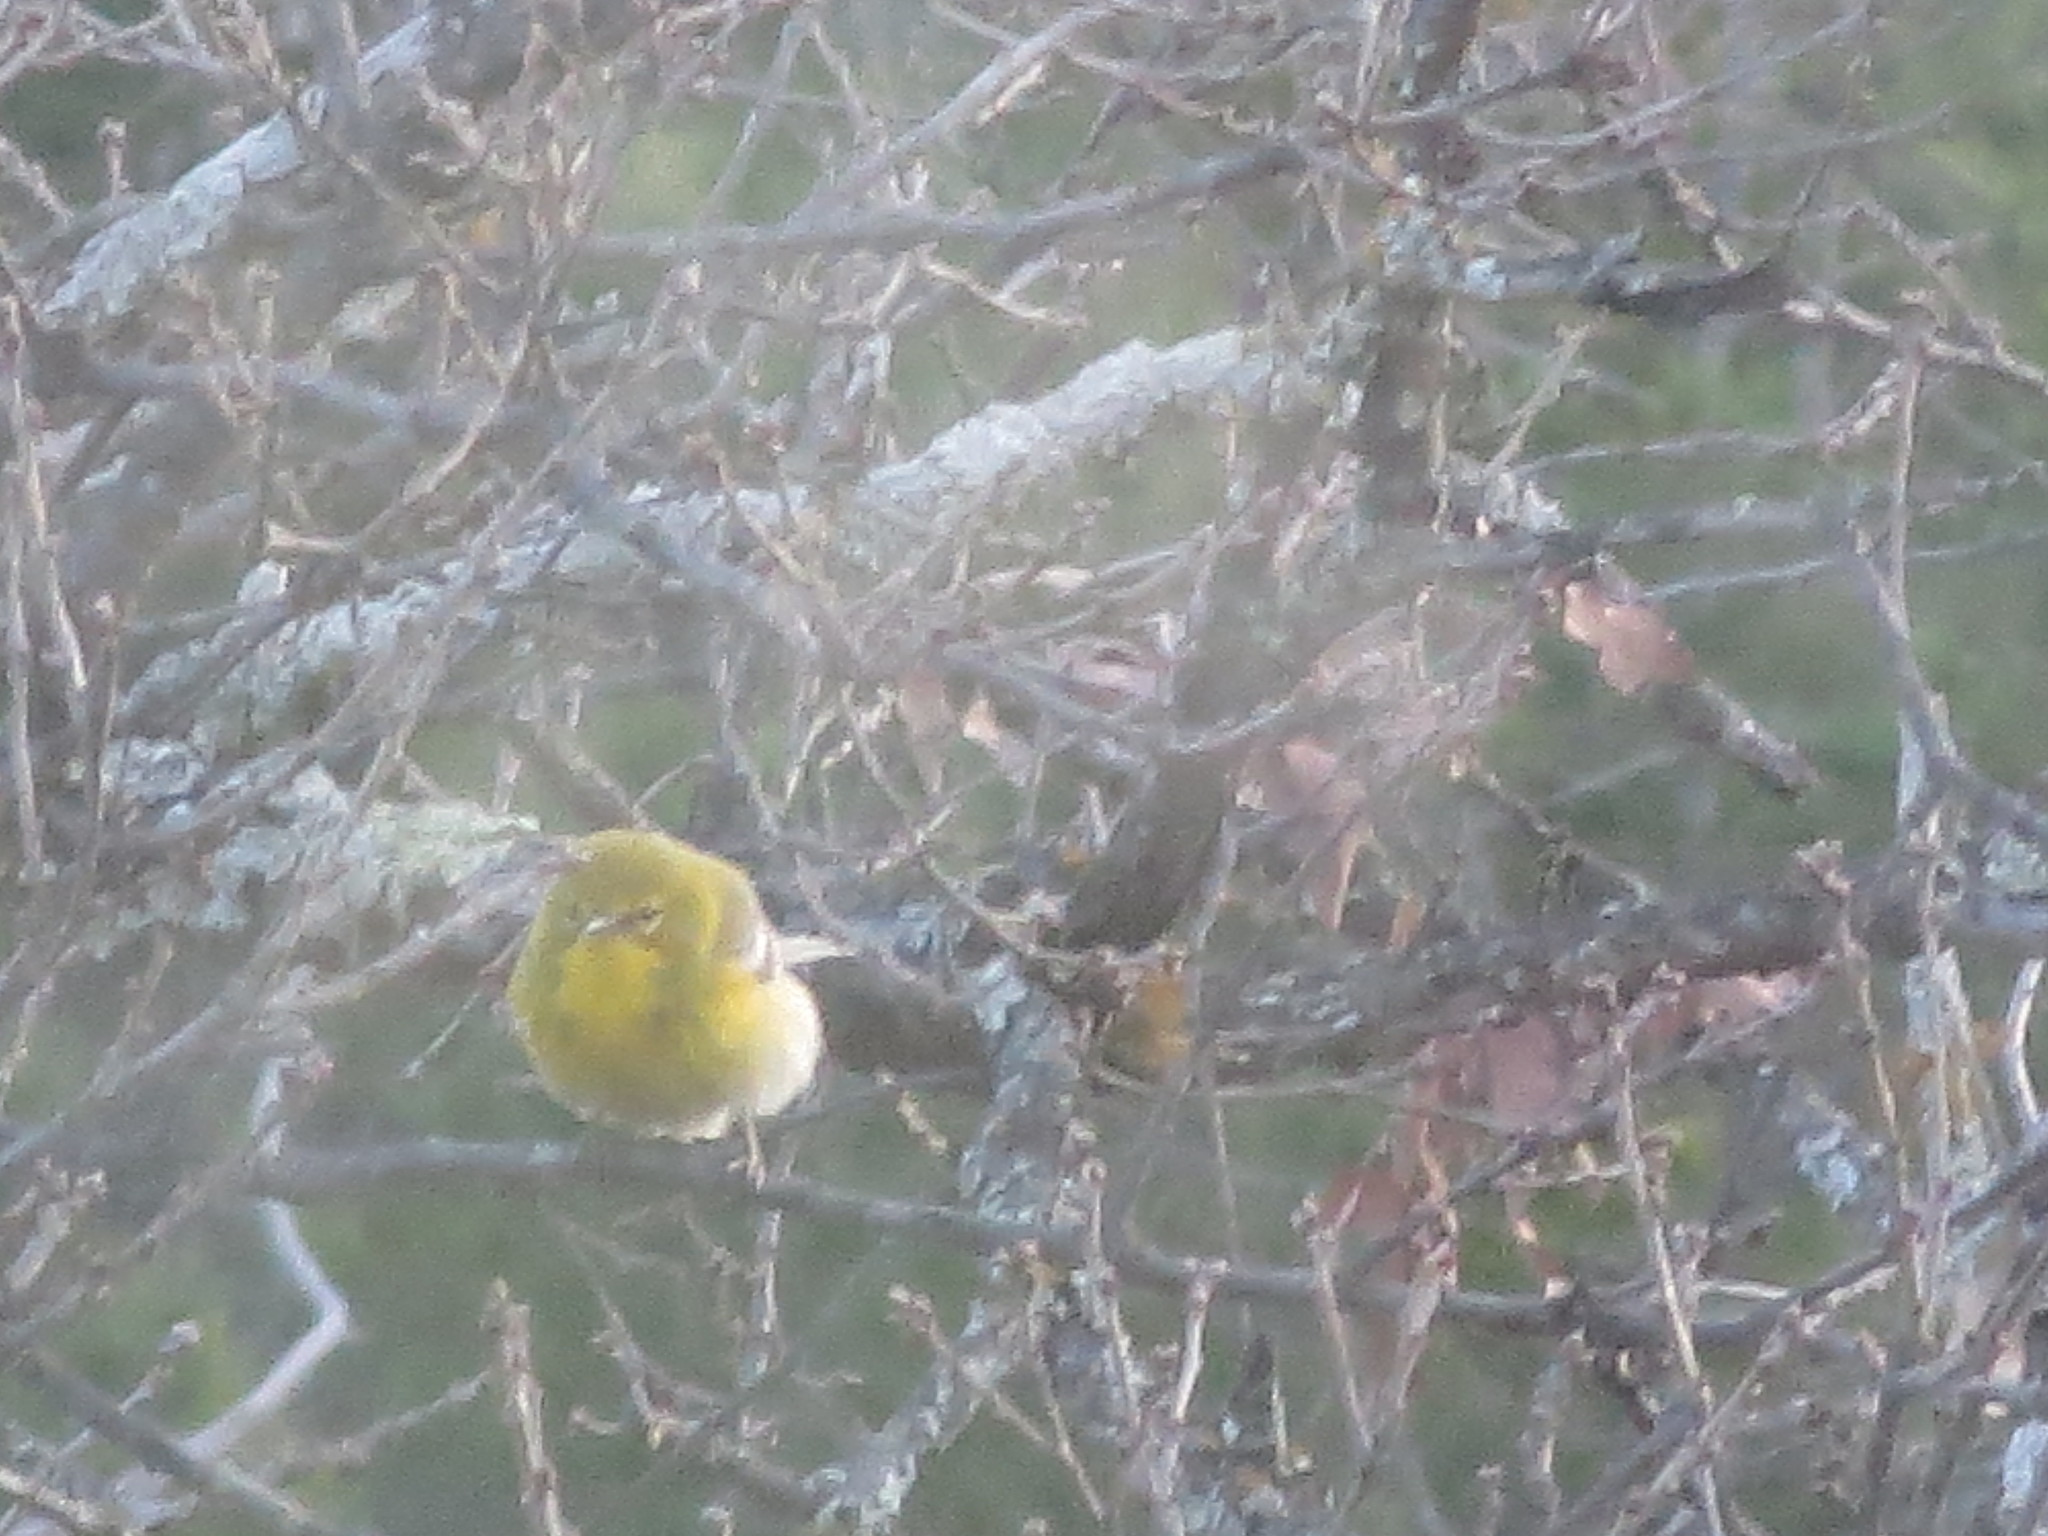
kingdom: Animalia
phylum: Chordata
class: Aves
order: Passeriformes
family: Parulidae
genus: Setophaga
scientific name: Setophaga pinus
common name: Pine warbler
